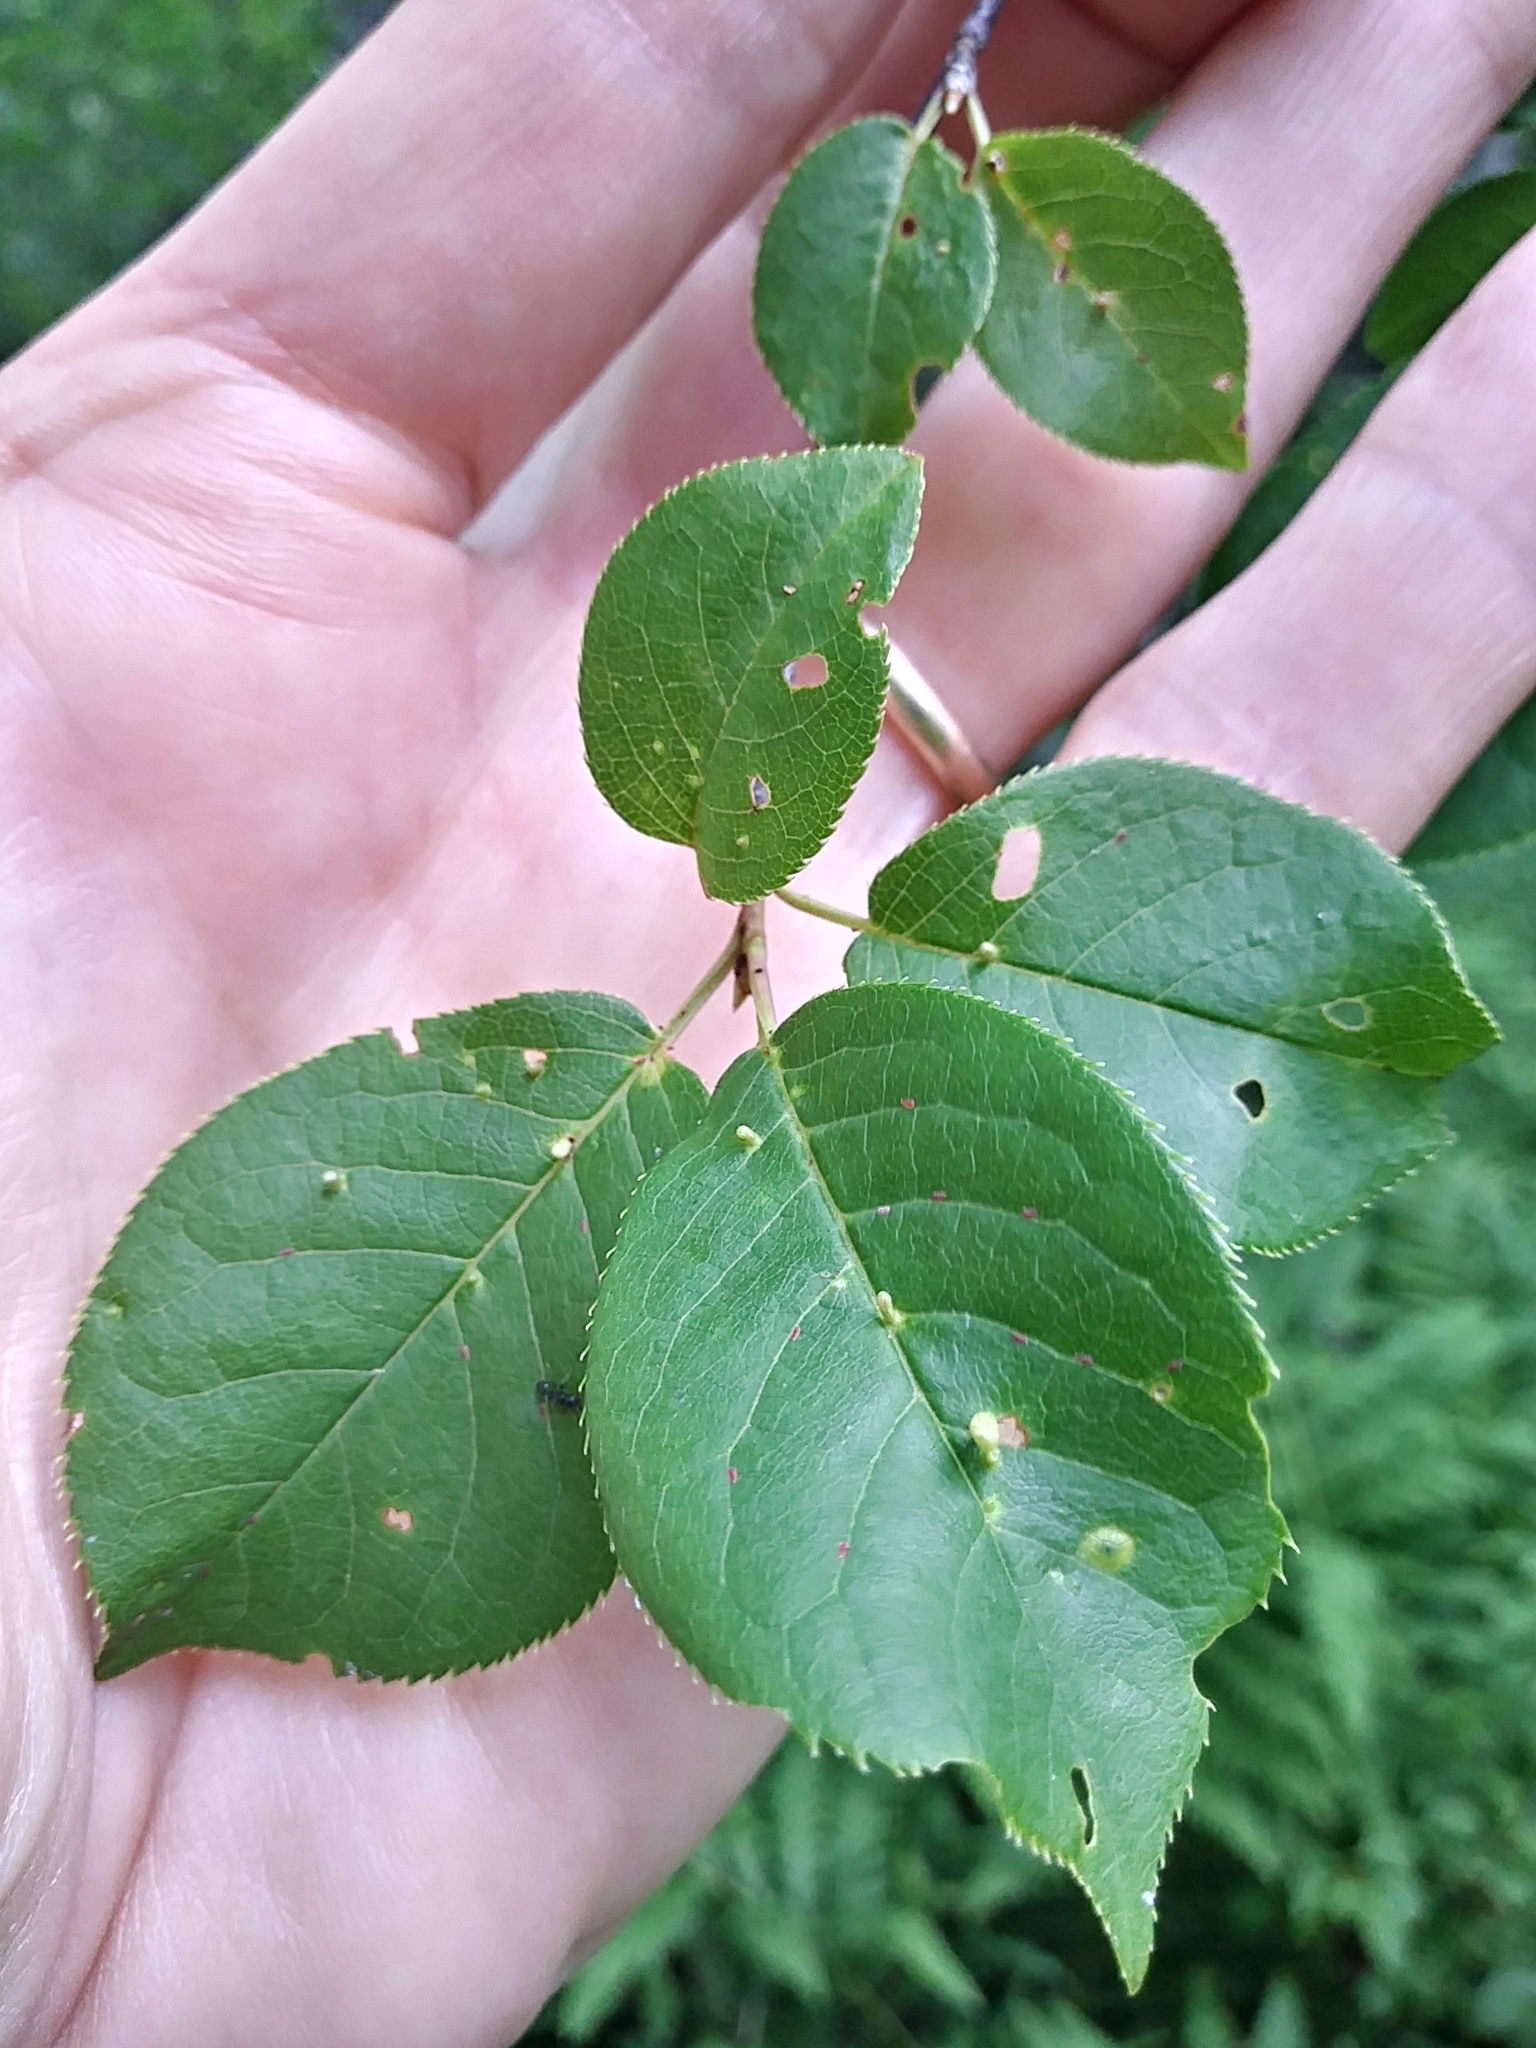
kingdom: Plantae
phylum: Tracheophyta
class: Magnoliopsida
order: Rosales
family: Rosaceae
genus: Prunus
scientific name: Prunus virginiana
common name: Chokecherry
